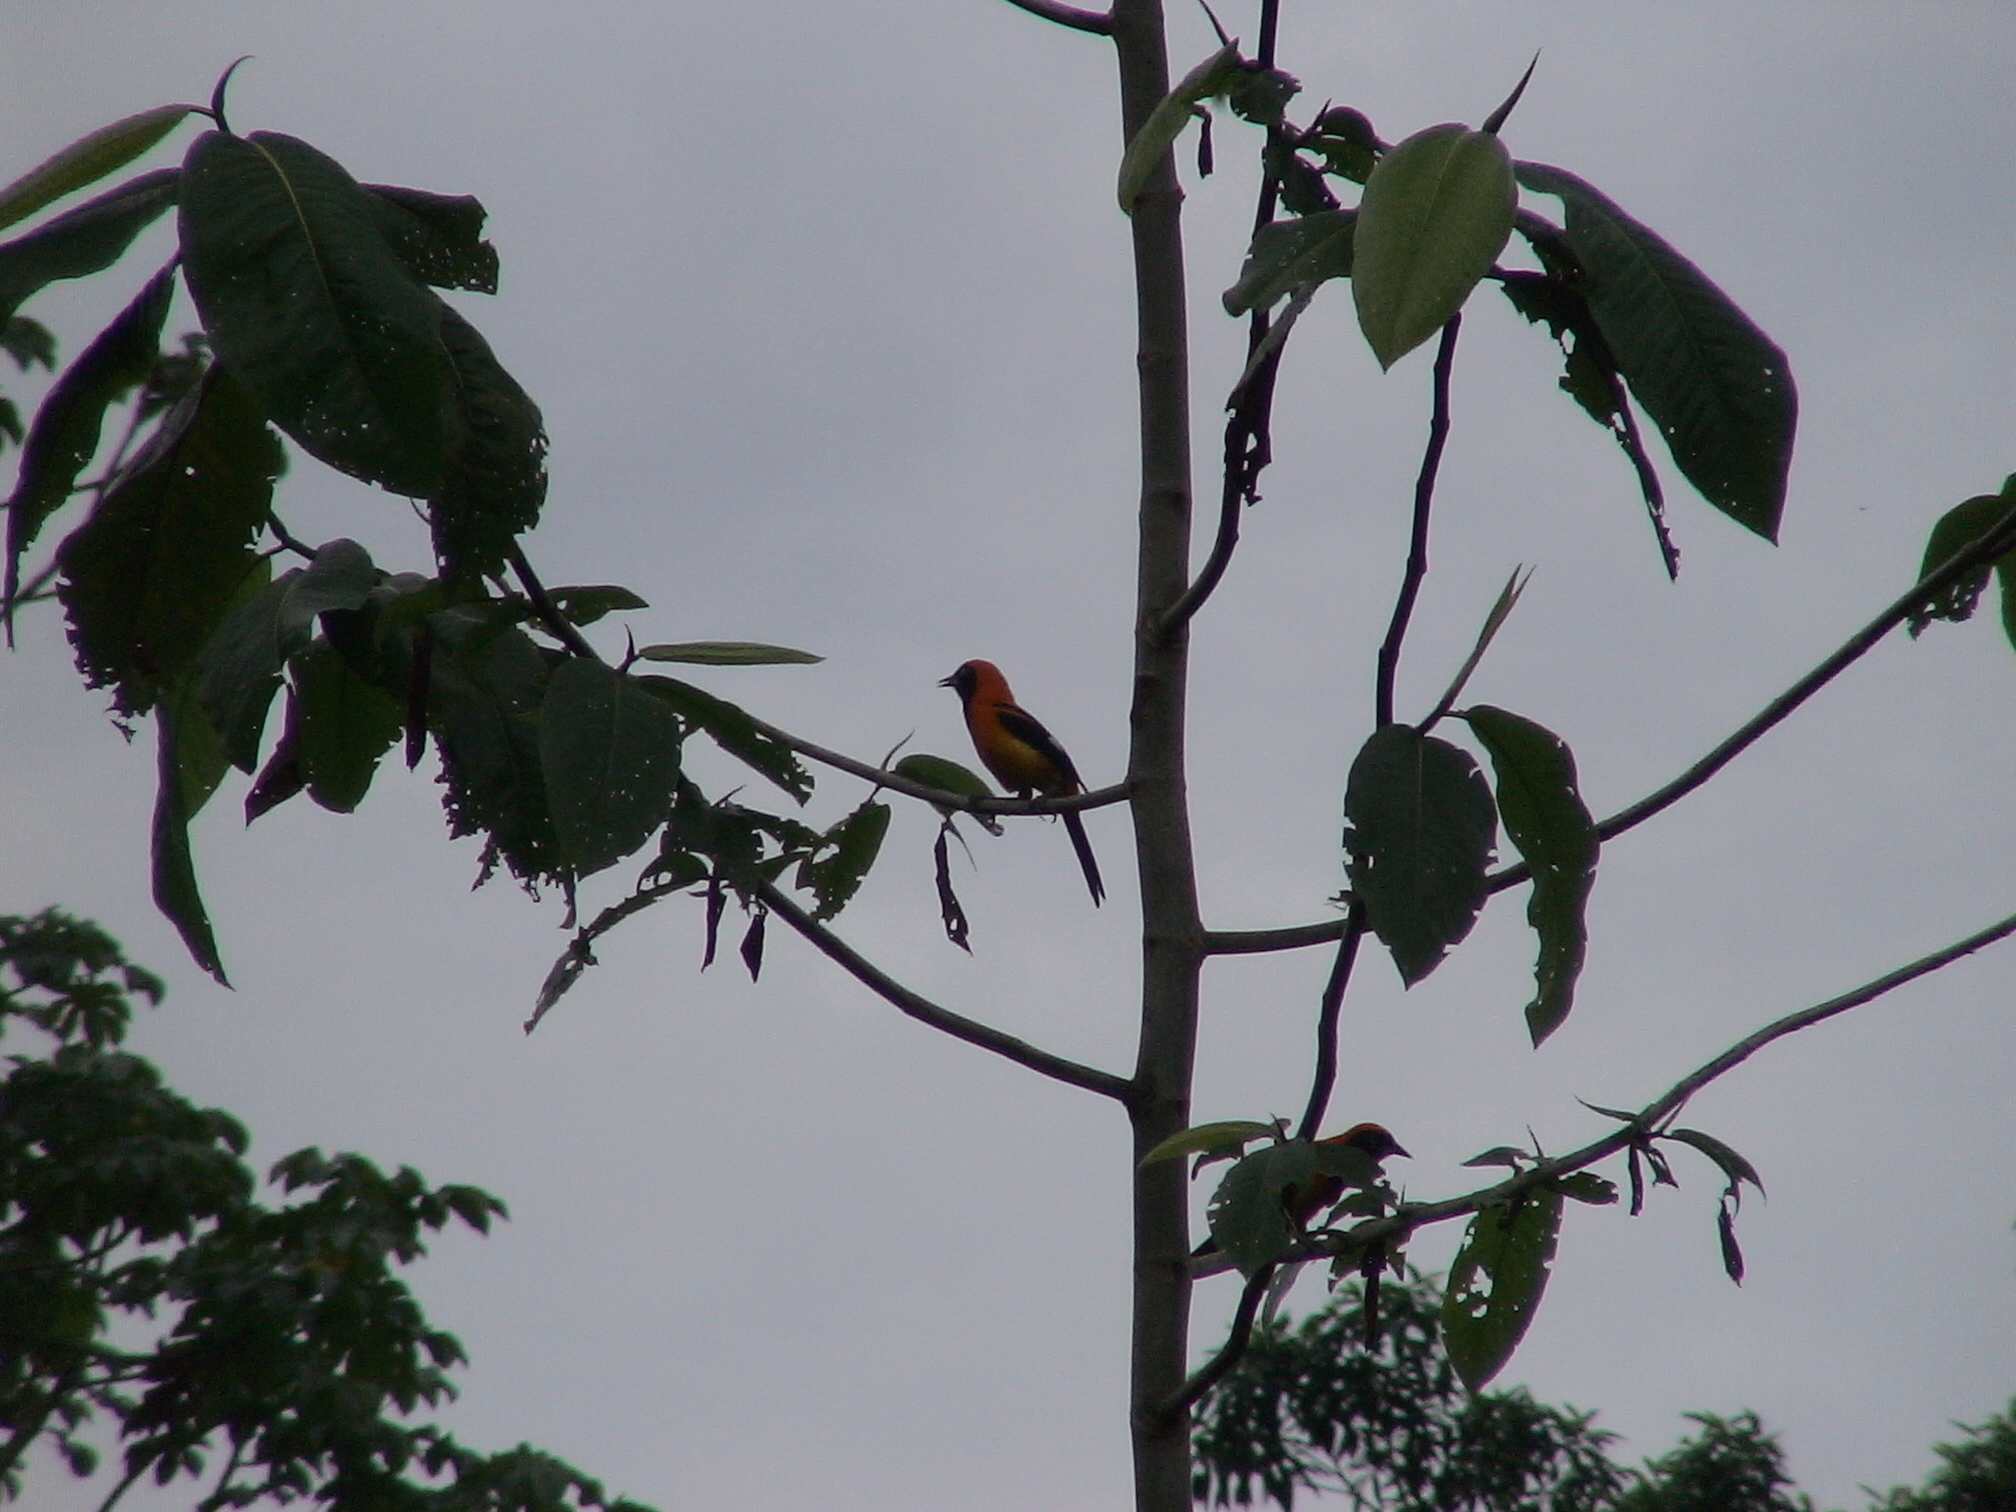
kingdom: Animalia
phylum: Chordata
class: Aves
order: Passeriformes
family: Icteridae
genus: Icterus
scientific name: Icterus icterus
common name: Venezuelan troupial
